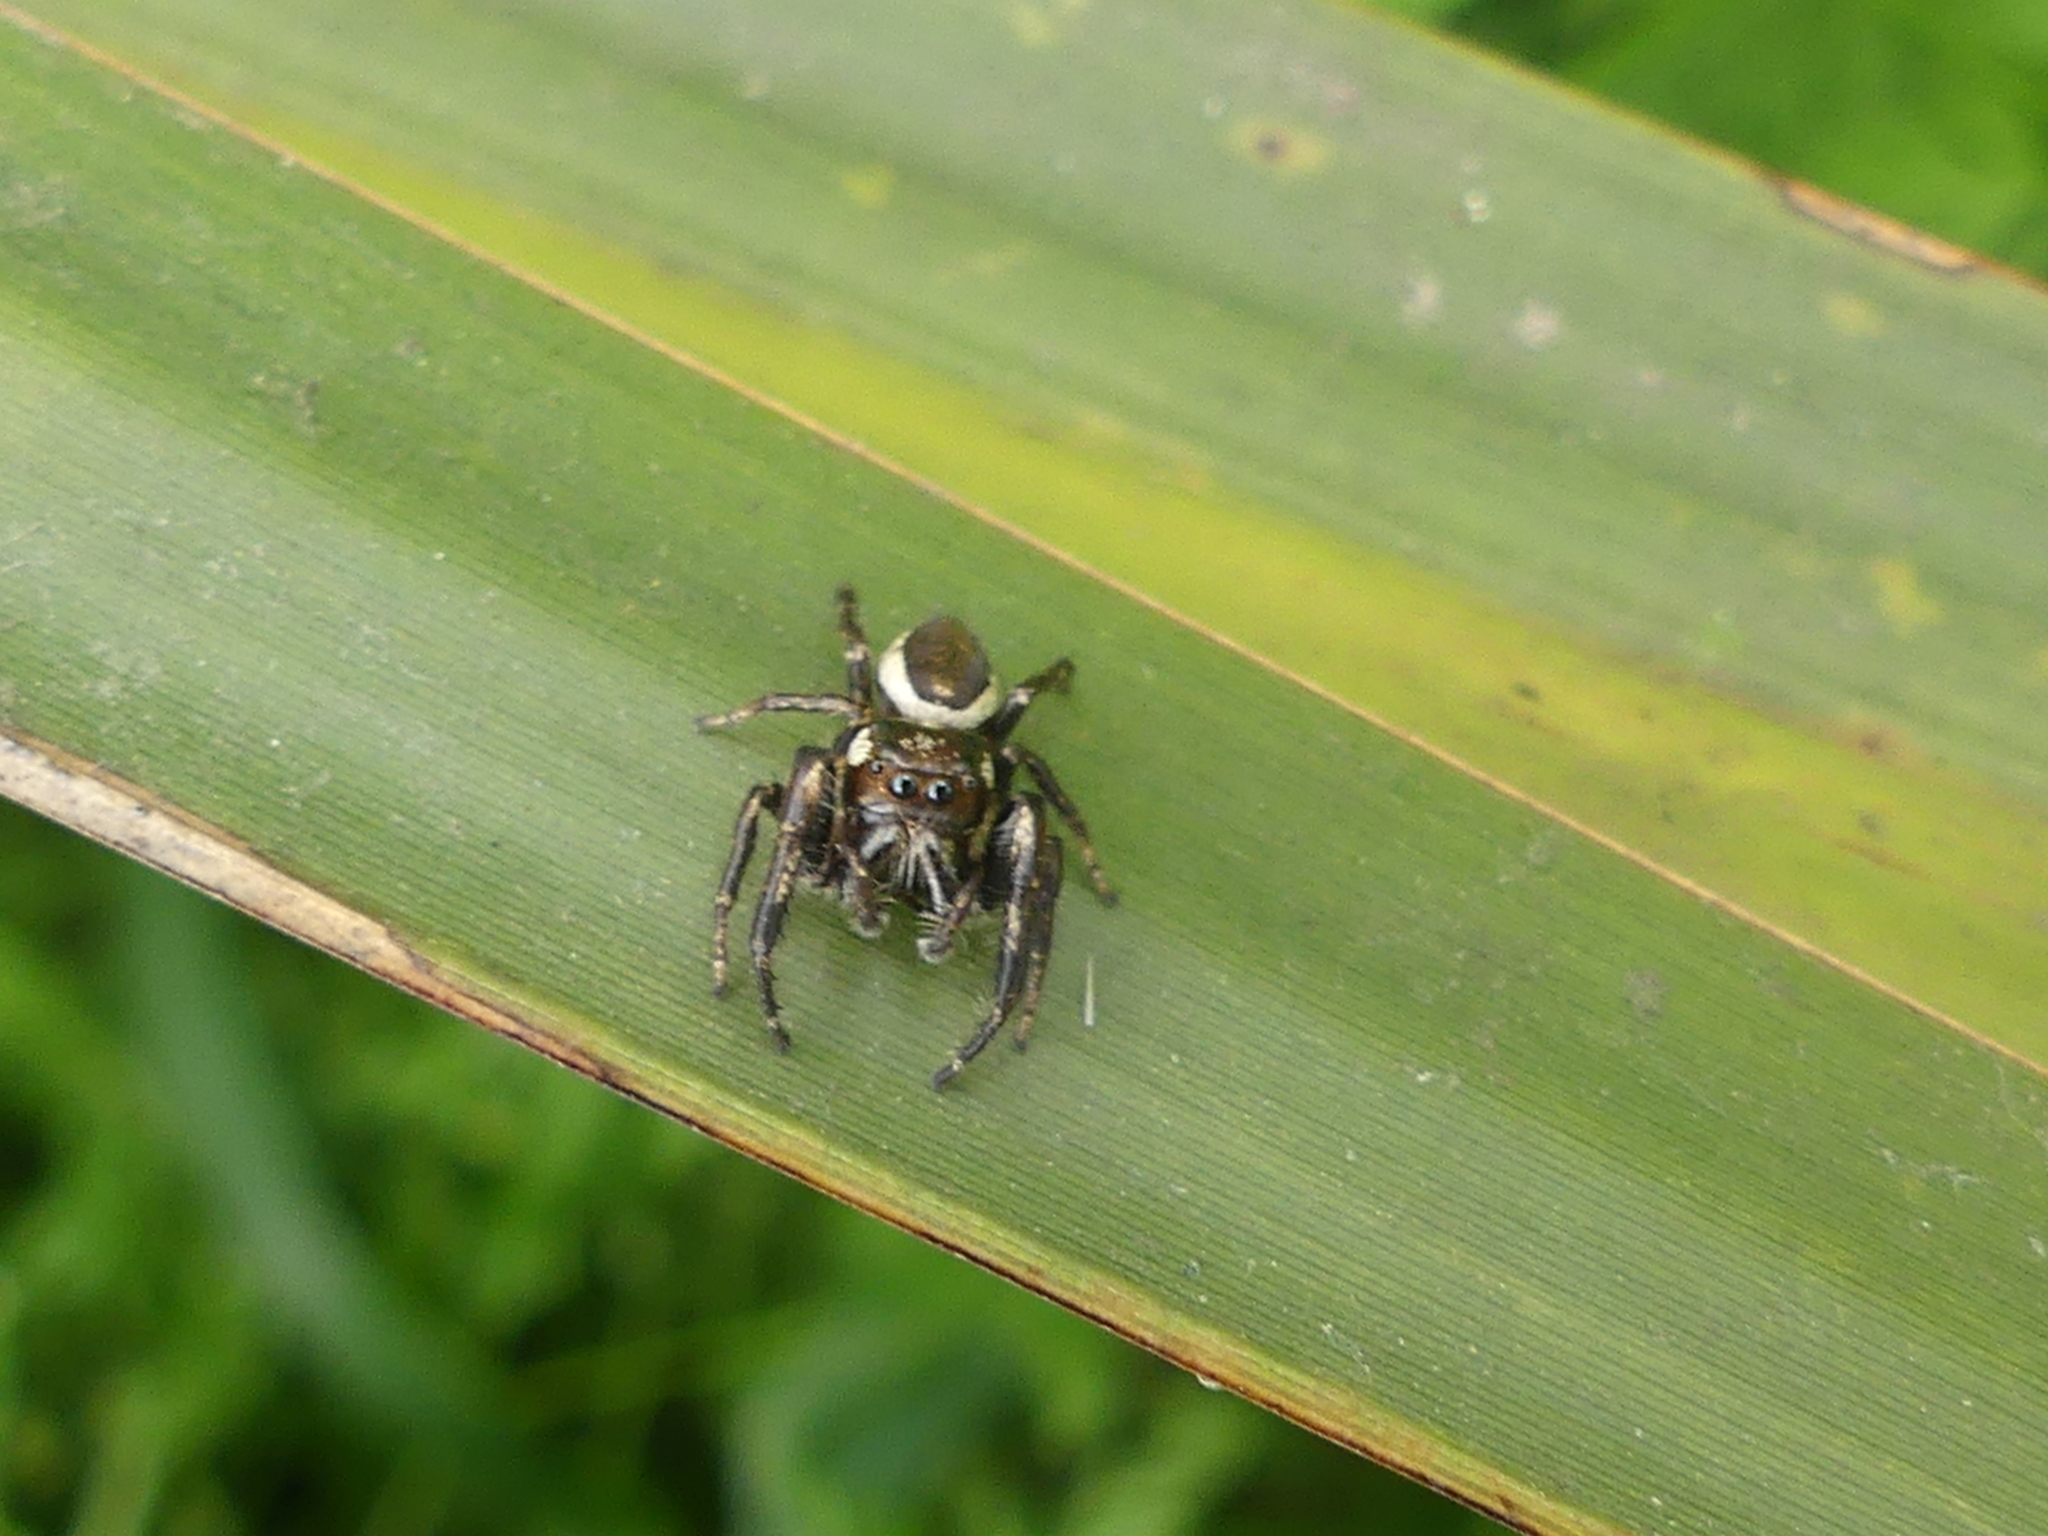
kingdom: Animalia
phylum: Arthropoda
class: Arachnida
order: Araneae
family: Salticidae
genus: Eris
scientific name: Eris militaris
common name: Bronze jumper
